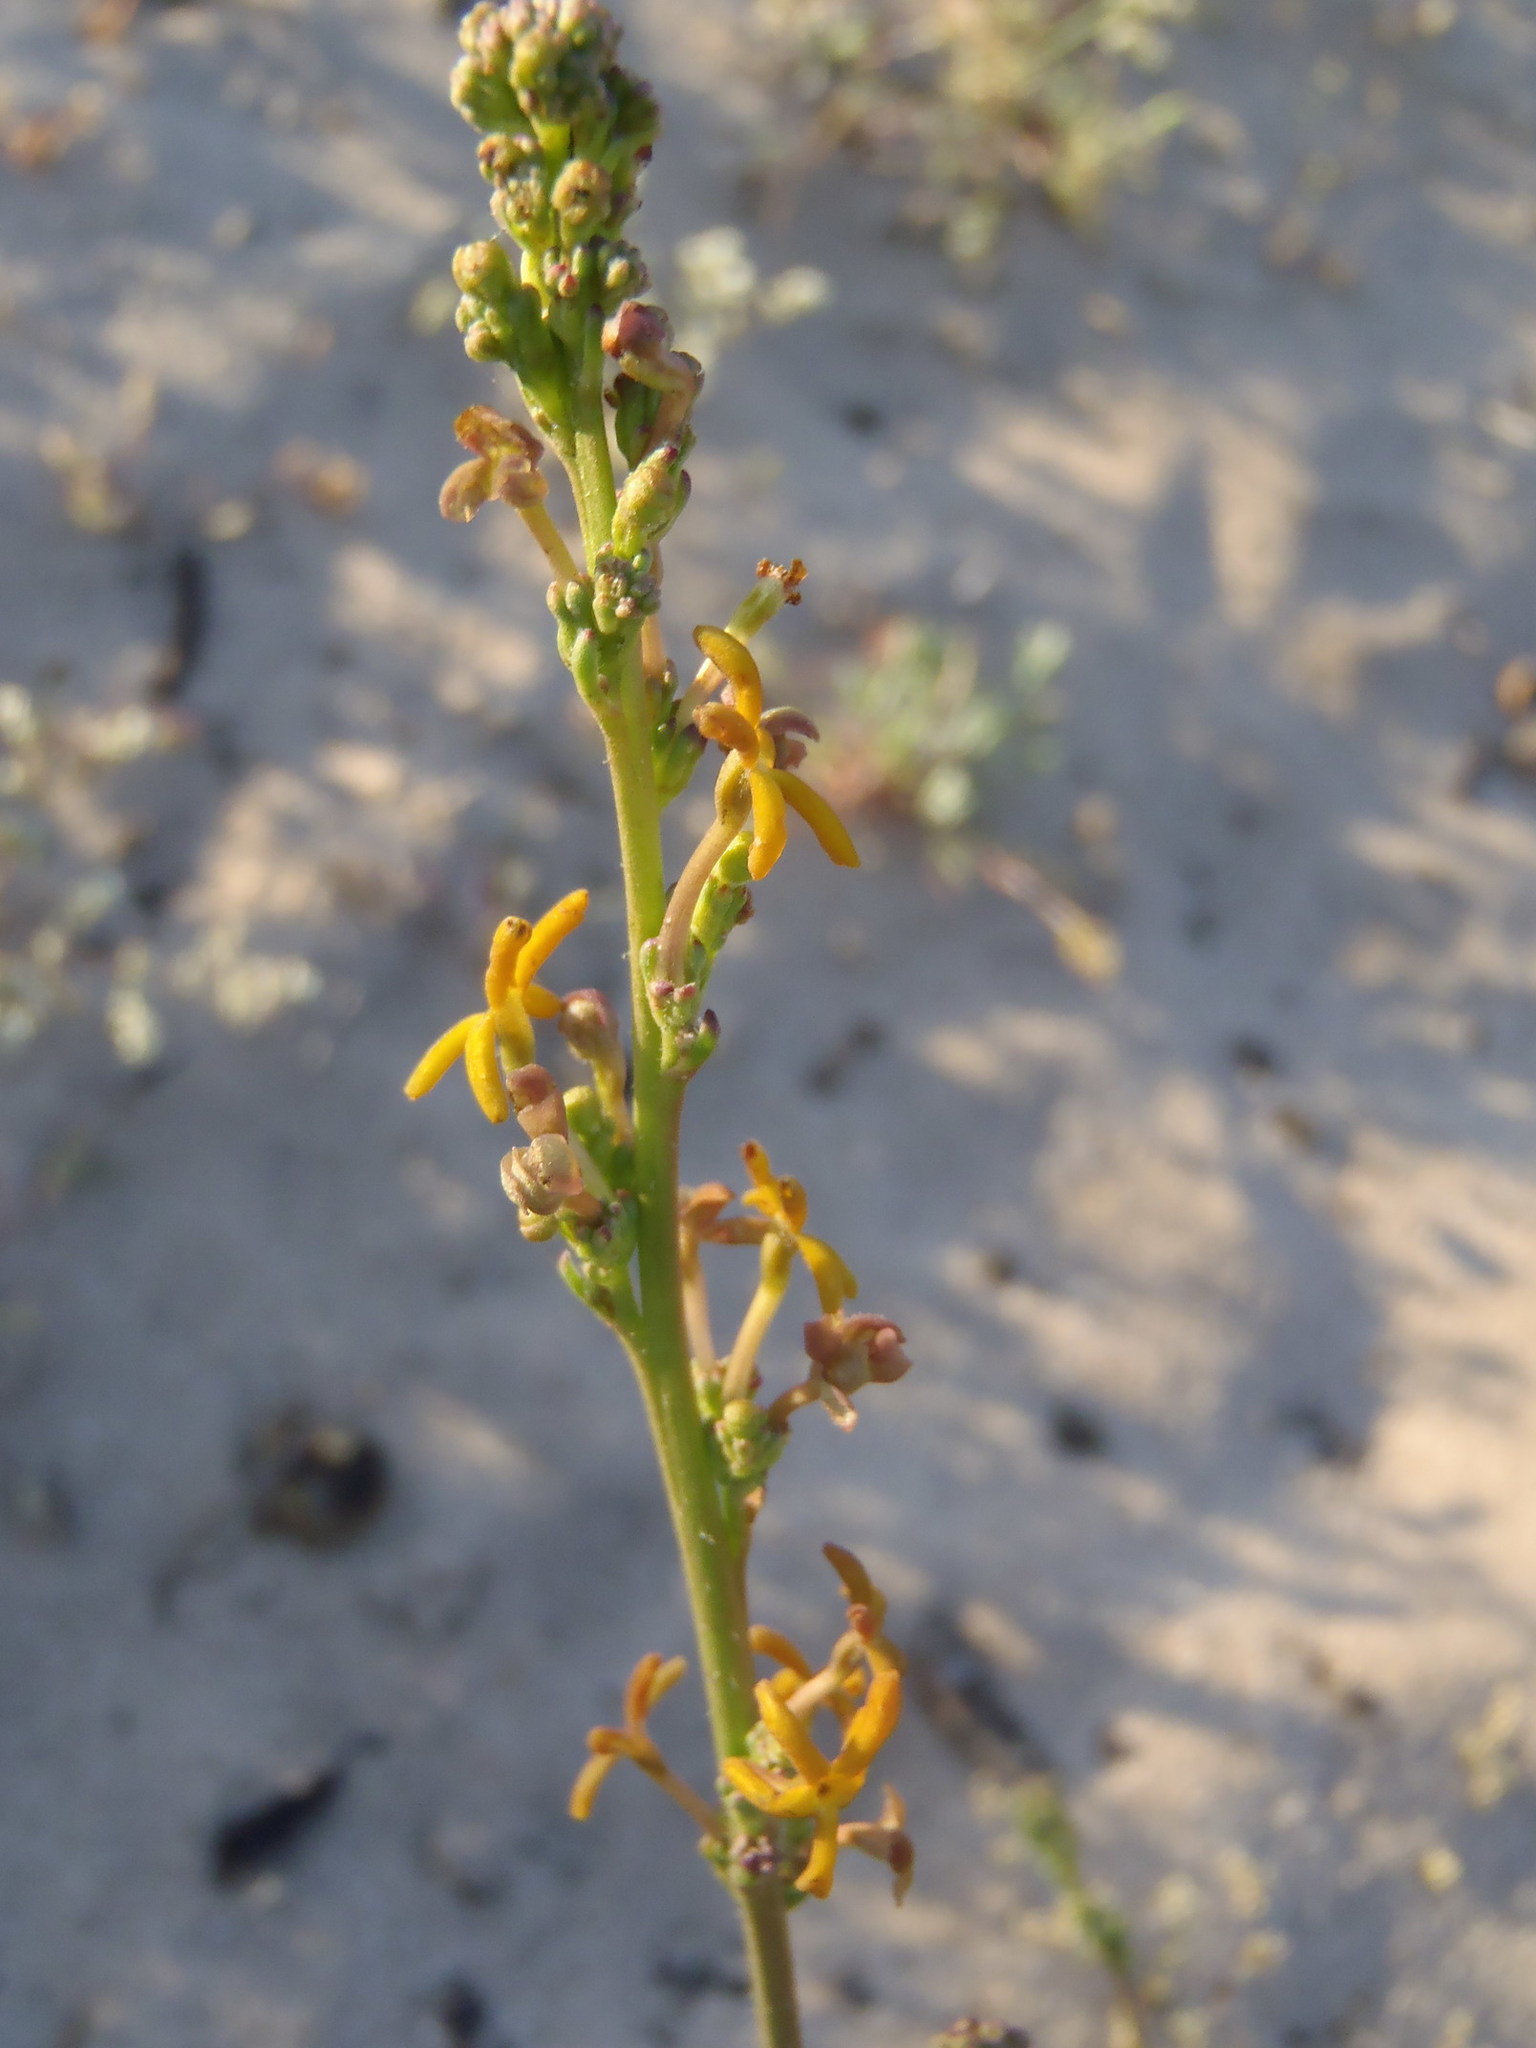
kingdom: Plantae
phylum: Tracheophyta
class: Magnoliopsida
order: Lamiales
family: Scrophulariaceae
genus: Manulea
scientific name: Manulea rubra
